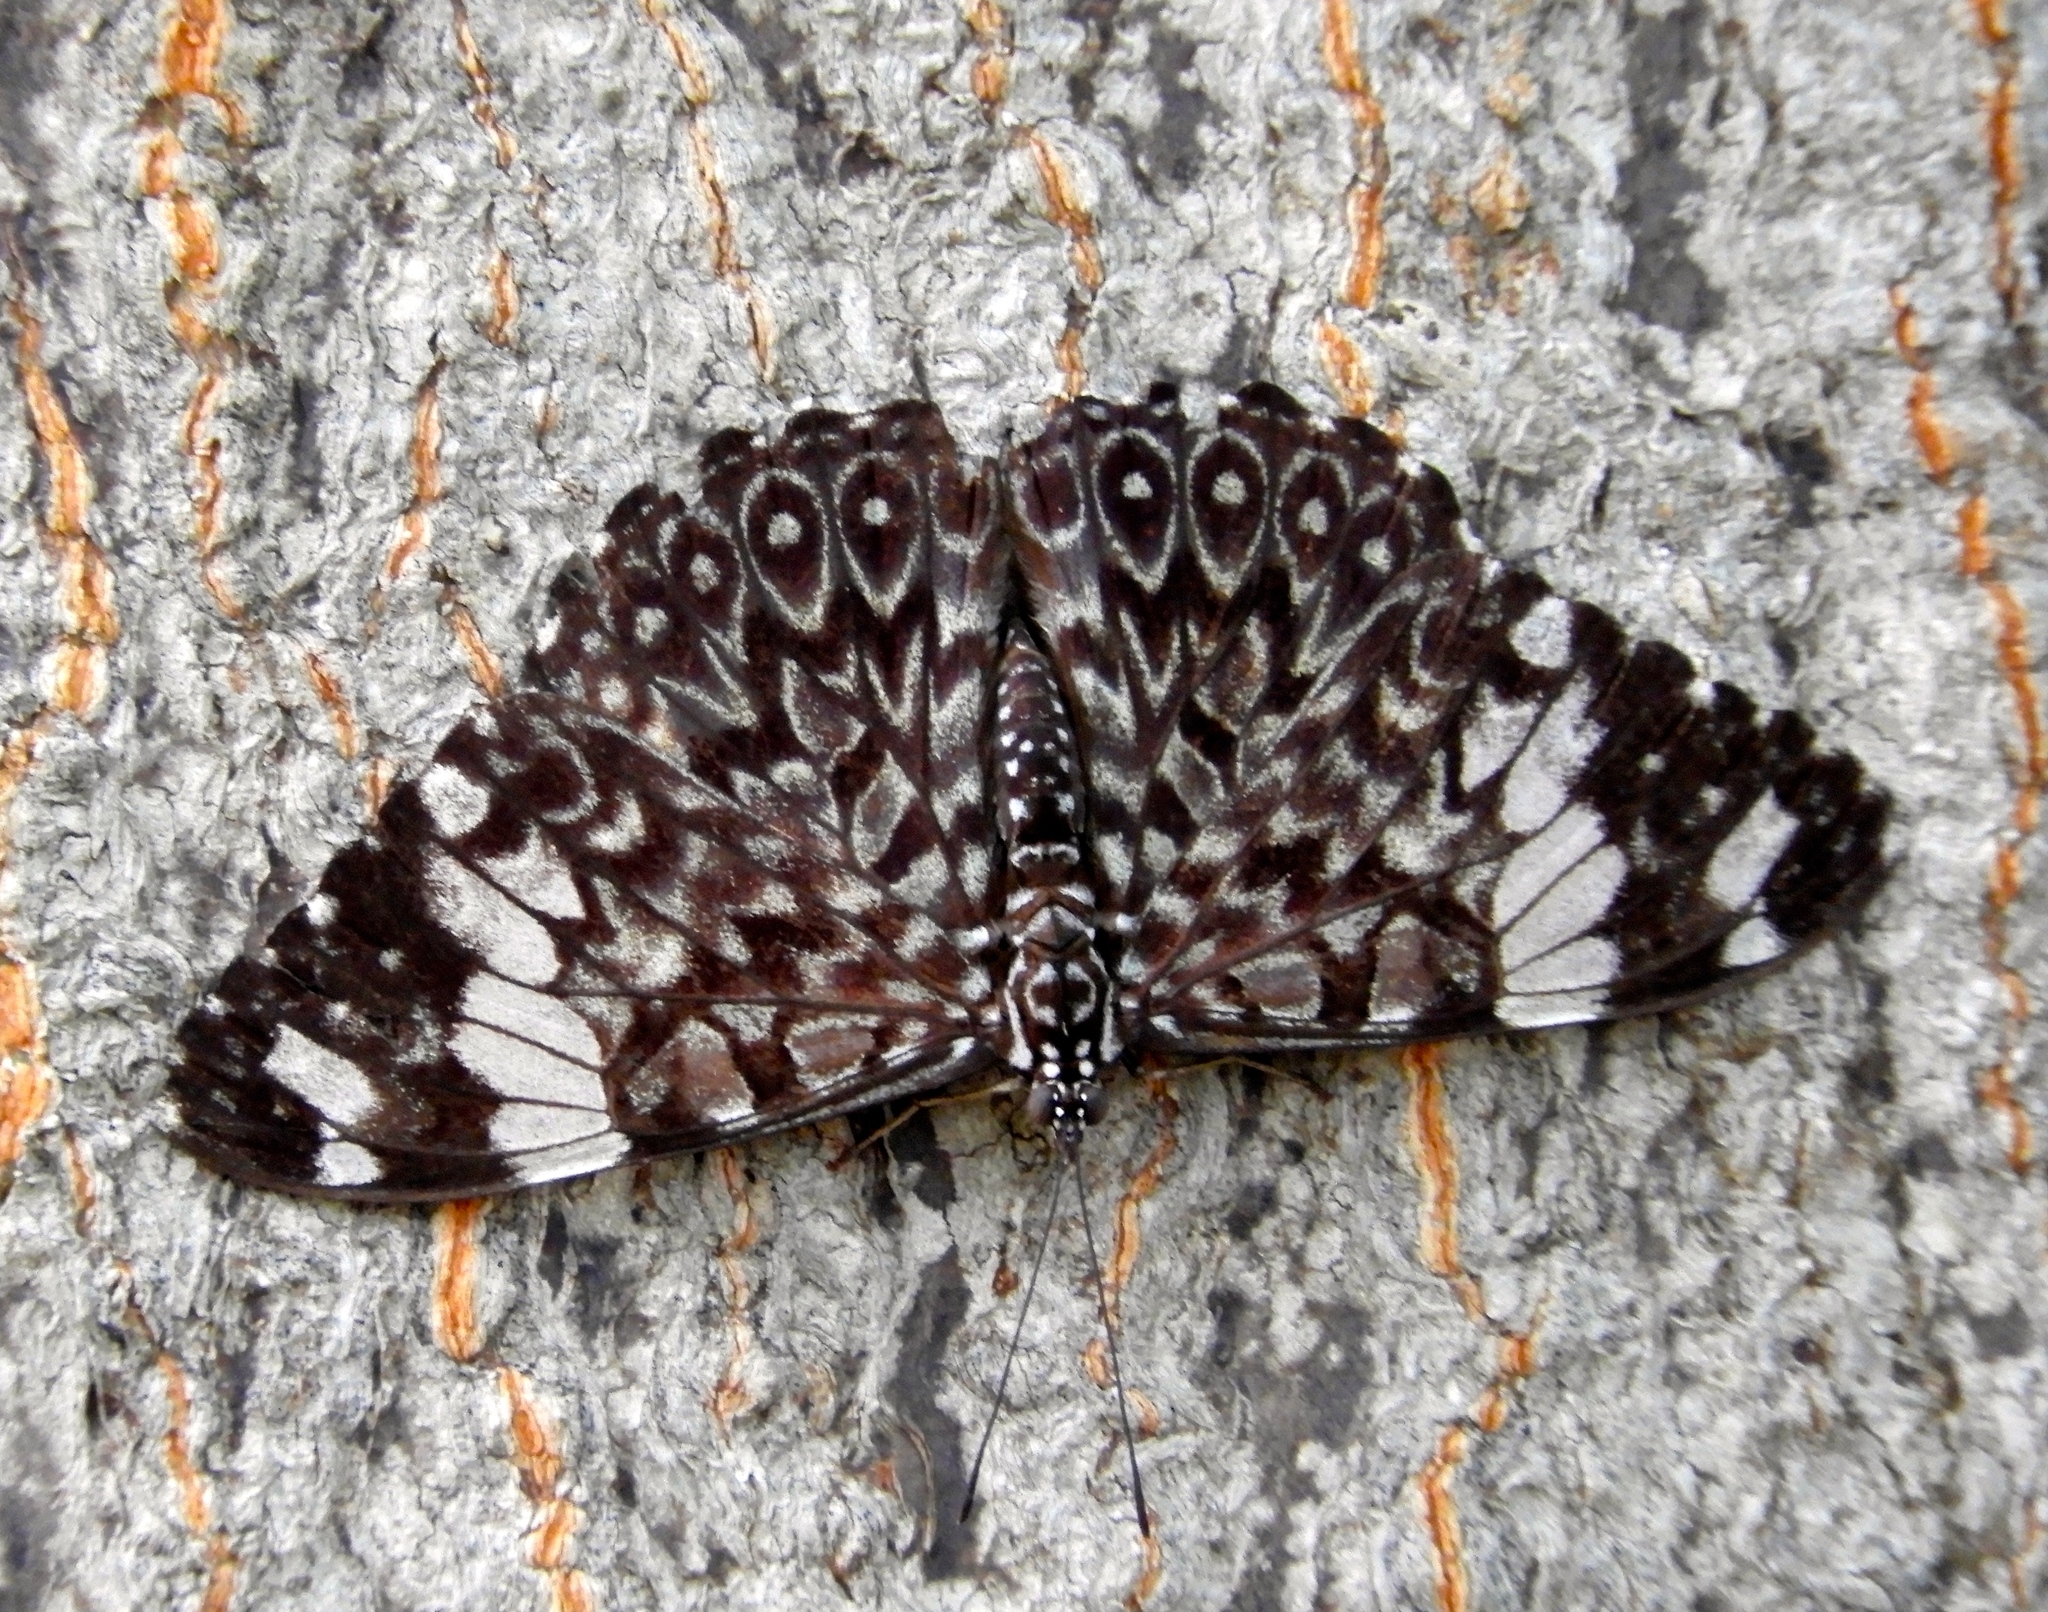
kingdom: Animalia
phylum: Arthropoda
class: Insecta
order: Lepidoptera
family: Nymphalidae
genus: Hamadryas
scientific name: Hamadryas amphinome
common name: Red cracker
